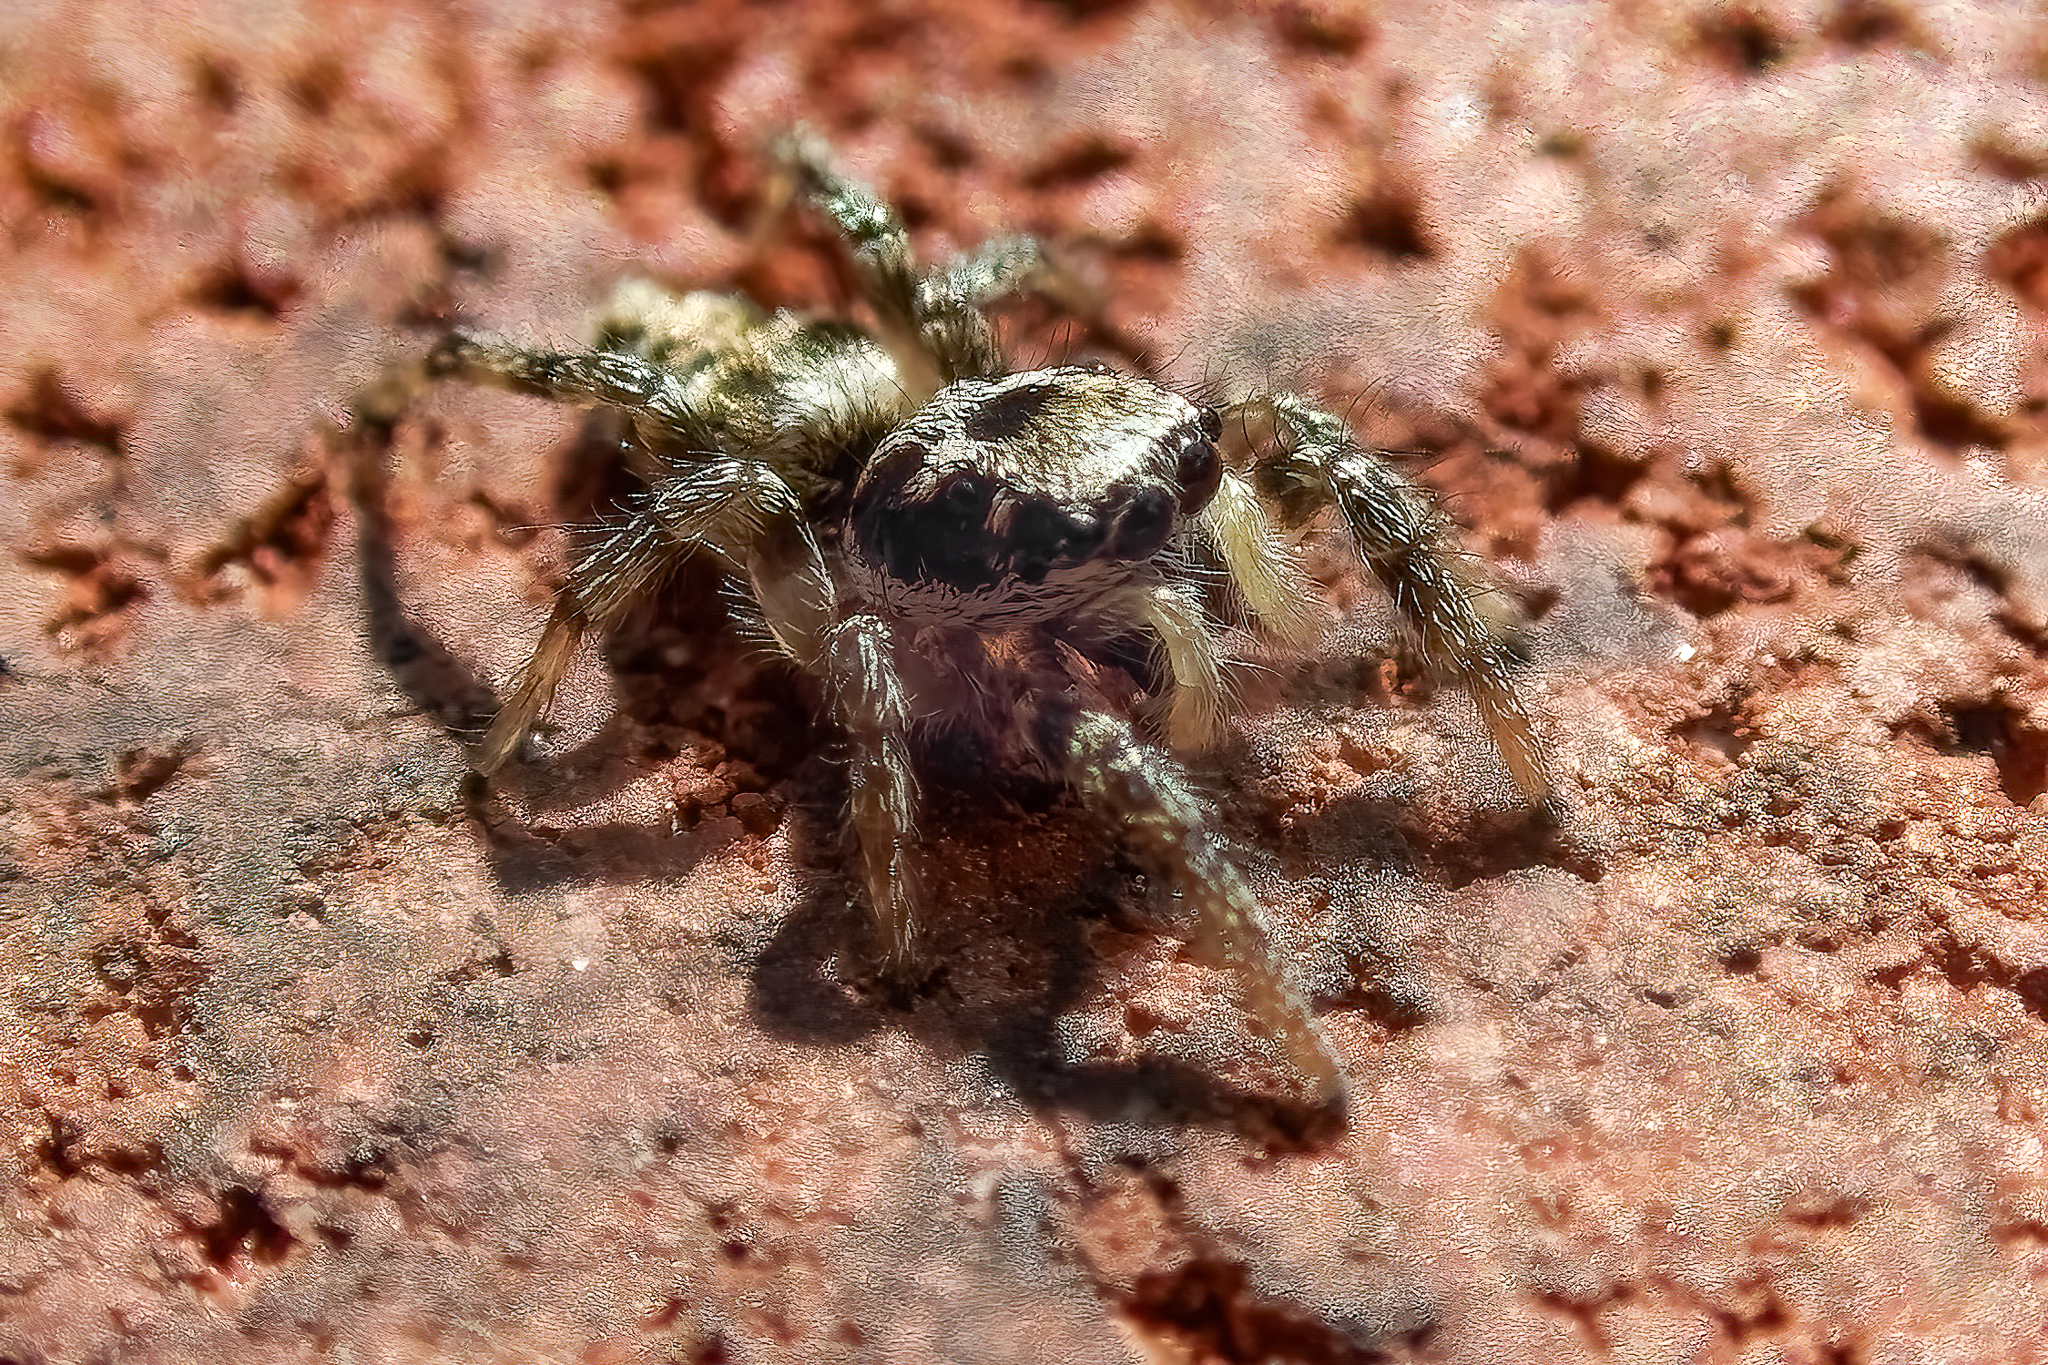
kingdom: Animalia
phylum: Arthropoda
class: Arachnida
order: Araneae
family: Salticidae
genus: Salticus
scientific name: Salticus scenicus
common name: Zebra jumper
